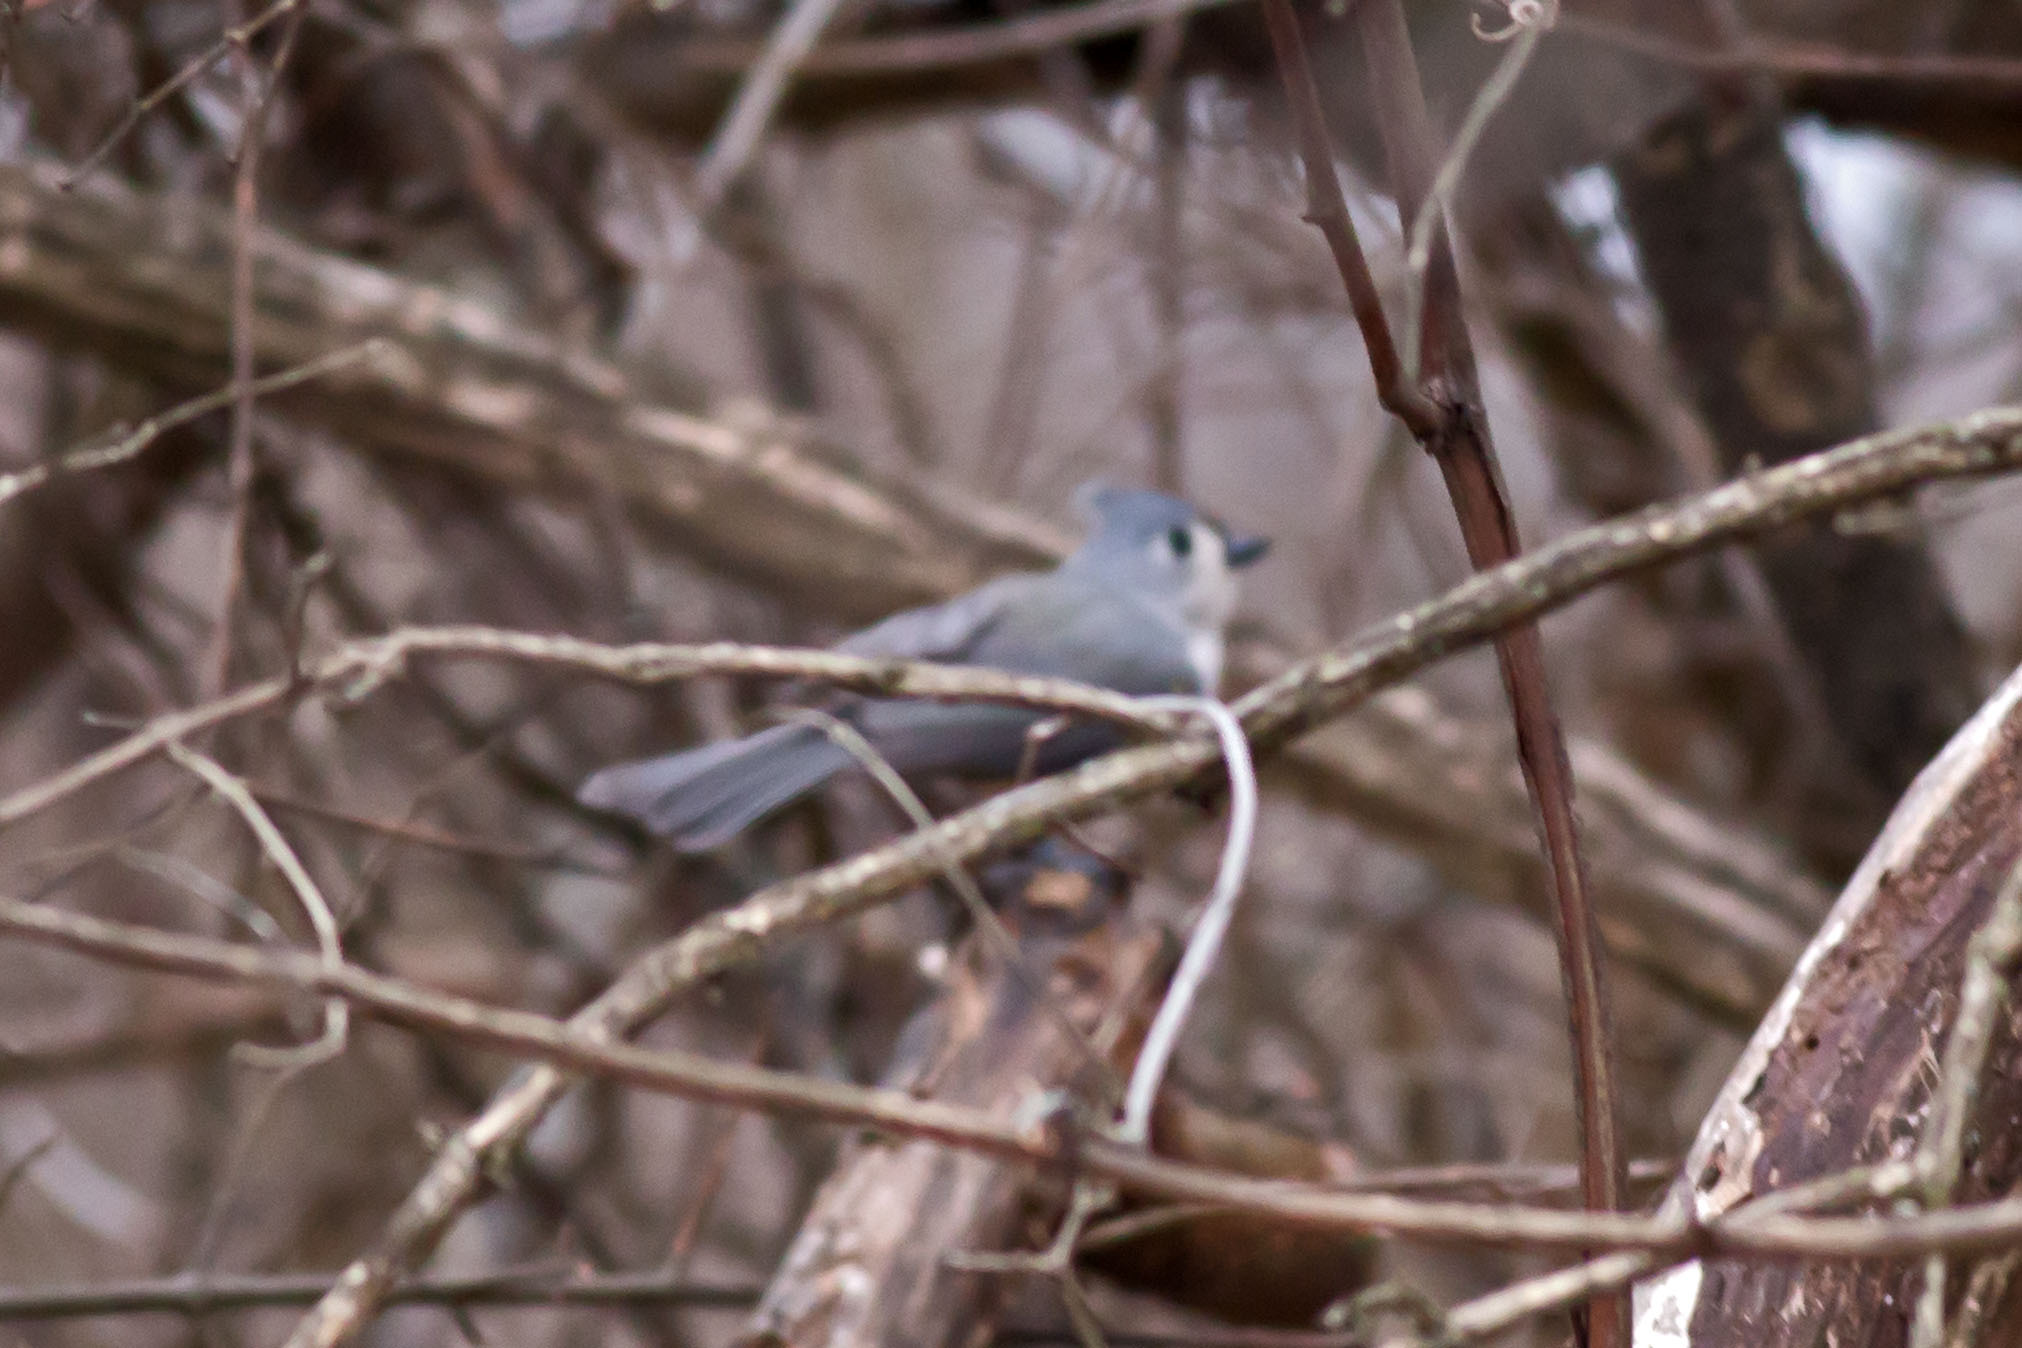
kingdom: Animalia
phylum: Chordata
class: Aves
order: Passeriformes
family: Paridae
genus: Baeolophus
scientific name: Baeolophus bicolor
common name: Tufted titmouse
